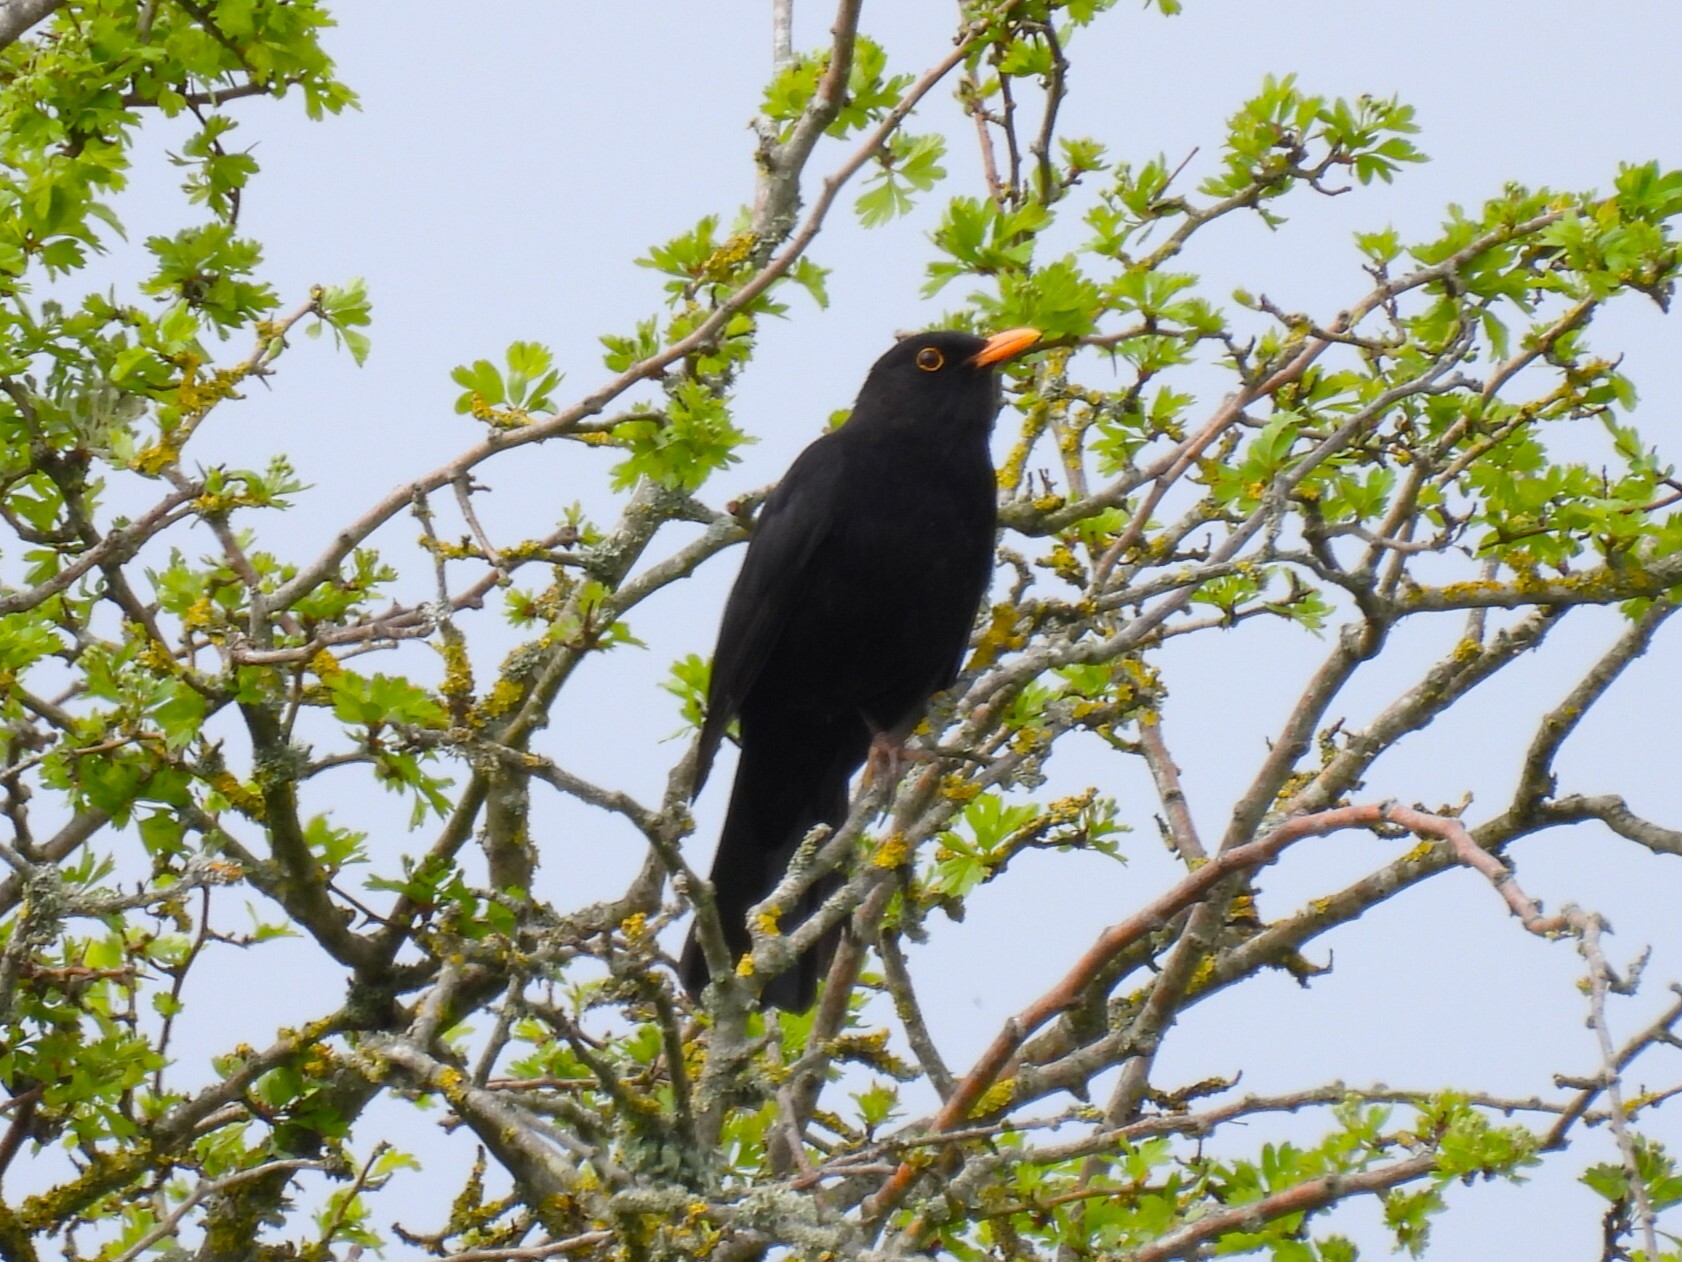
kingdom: Animalia
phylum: Chordata
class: Aves
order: Passeriformes
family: Turdidae
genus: Turdus
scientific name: Turdus merula
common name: Common blackbird
